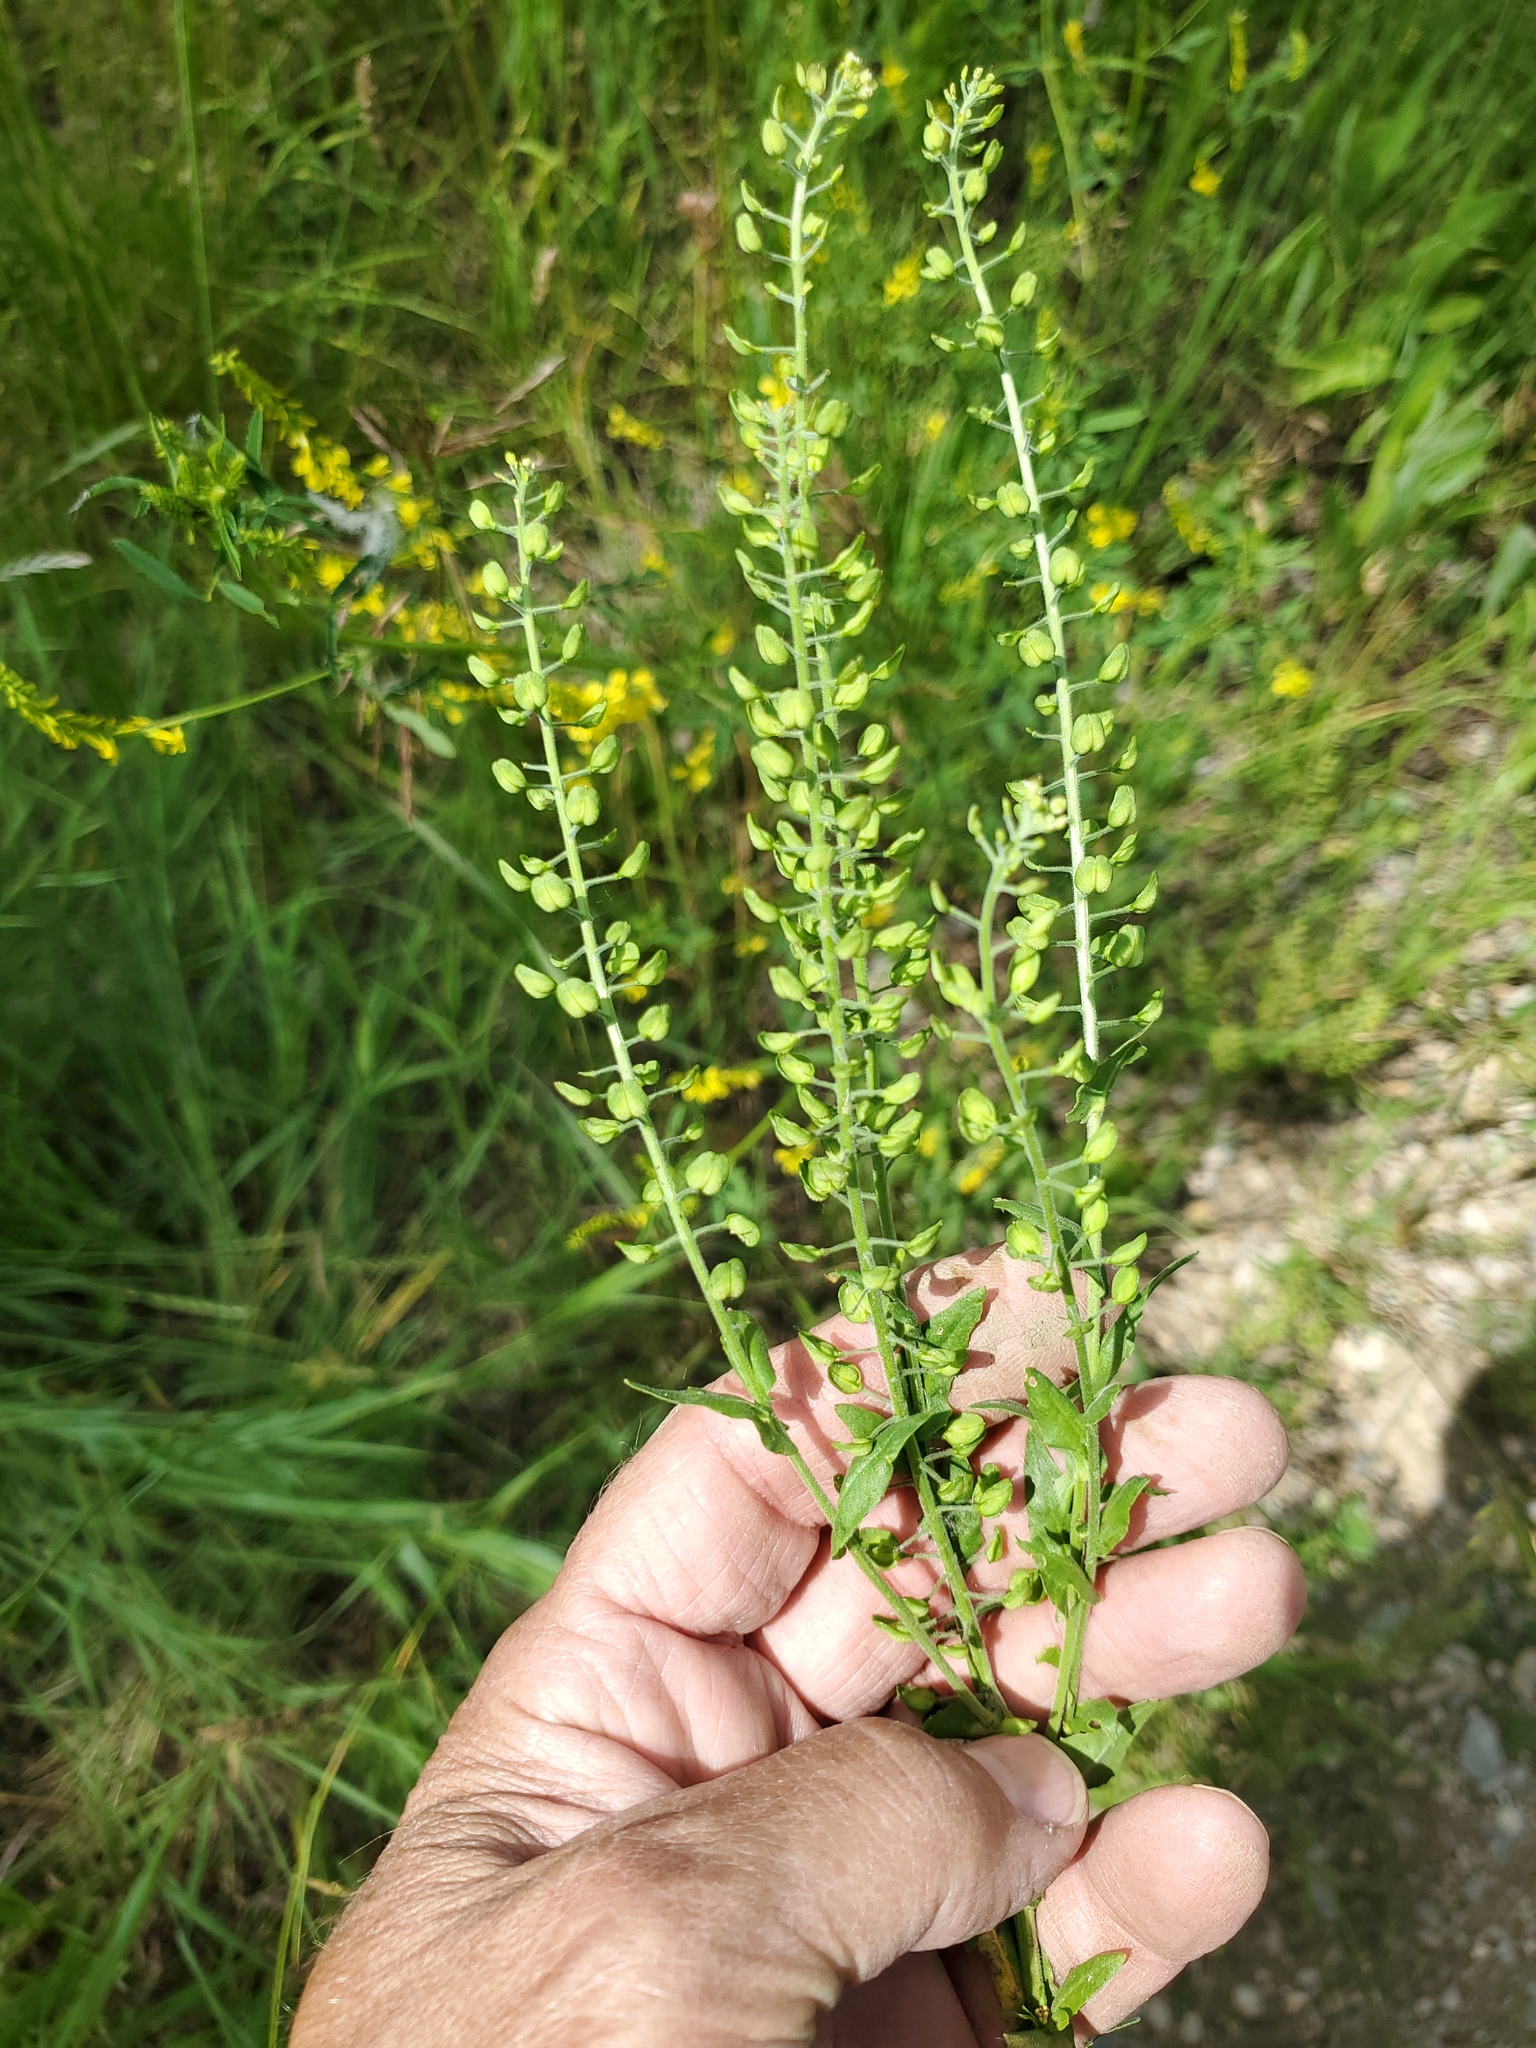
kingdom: Plantae
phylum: Tracheophyta
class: Magnoliopsida
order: Brassicales
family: Brassicaceae
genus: Lepidium
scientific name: Lepidium campestre
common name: Field pepperwort
